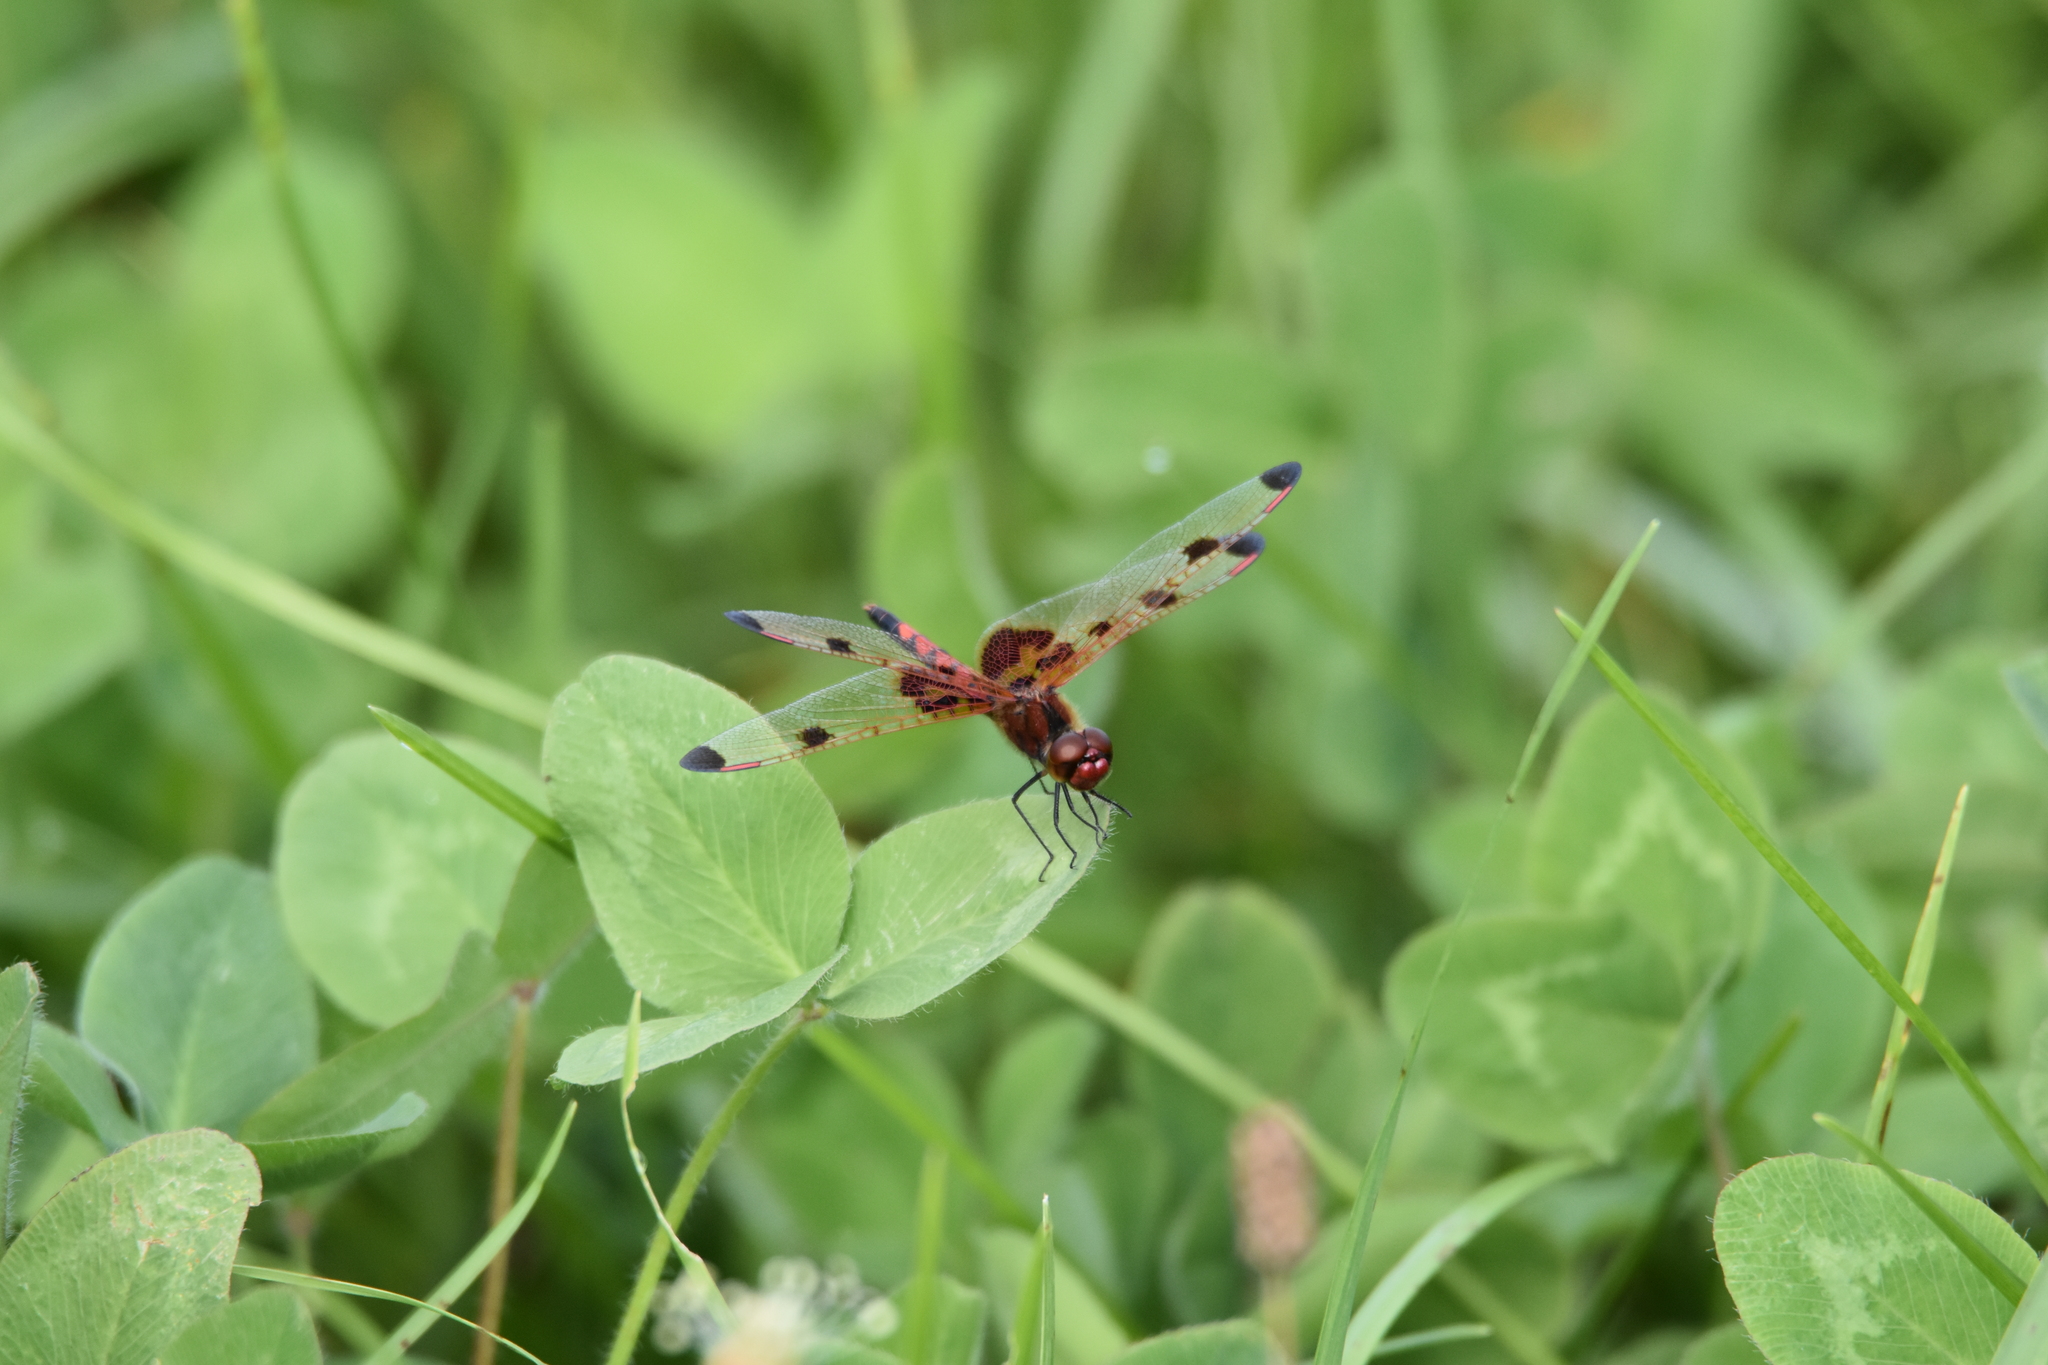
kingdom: Animalia
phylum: Arthropoda
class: Insecta
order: Odonata
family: Libellulidae
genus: Celithemis
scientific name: Celithemis elisa
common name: Calico pennant
